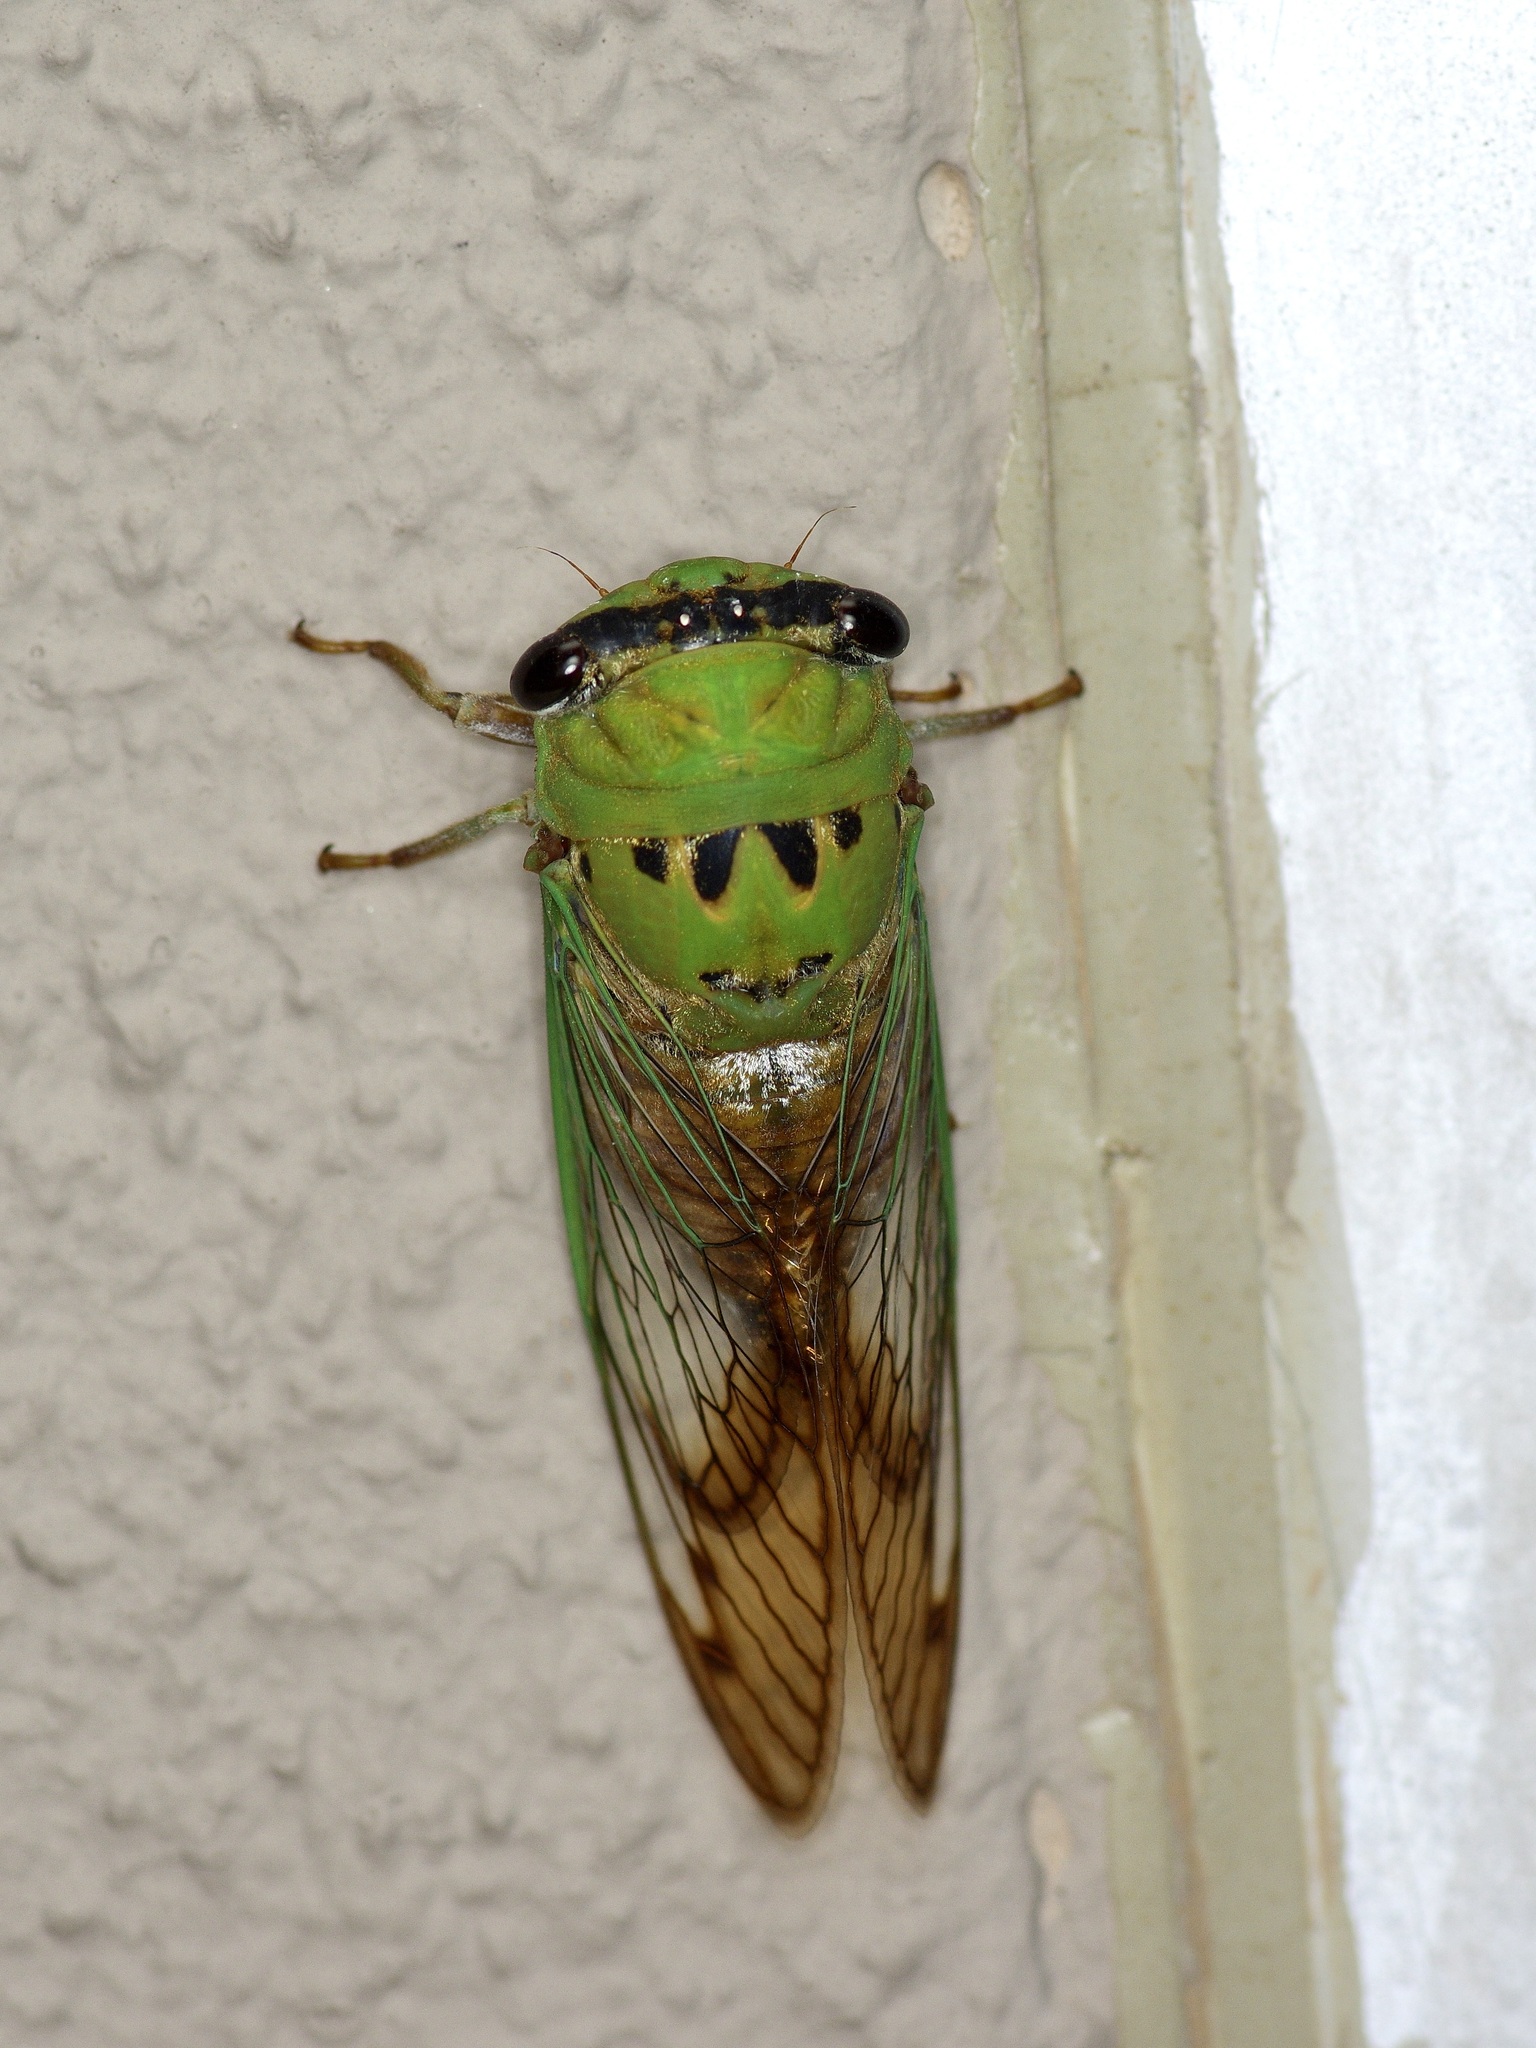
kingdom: Animalia
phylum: Arthropoda
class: Insecta
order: Hemiptera
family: Cicadidae
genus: Neotibicen
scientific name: Neotibicen superbus
